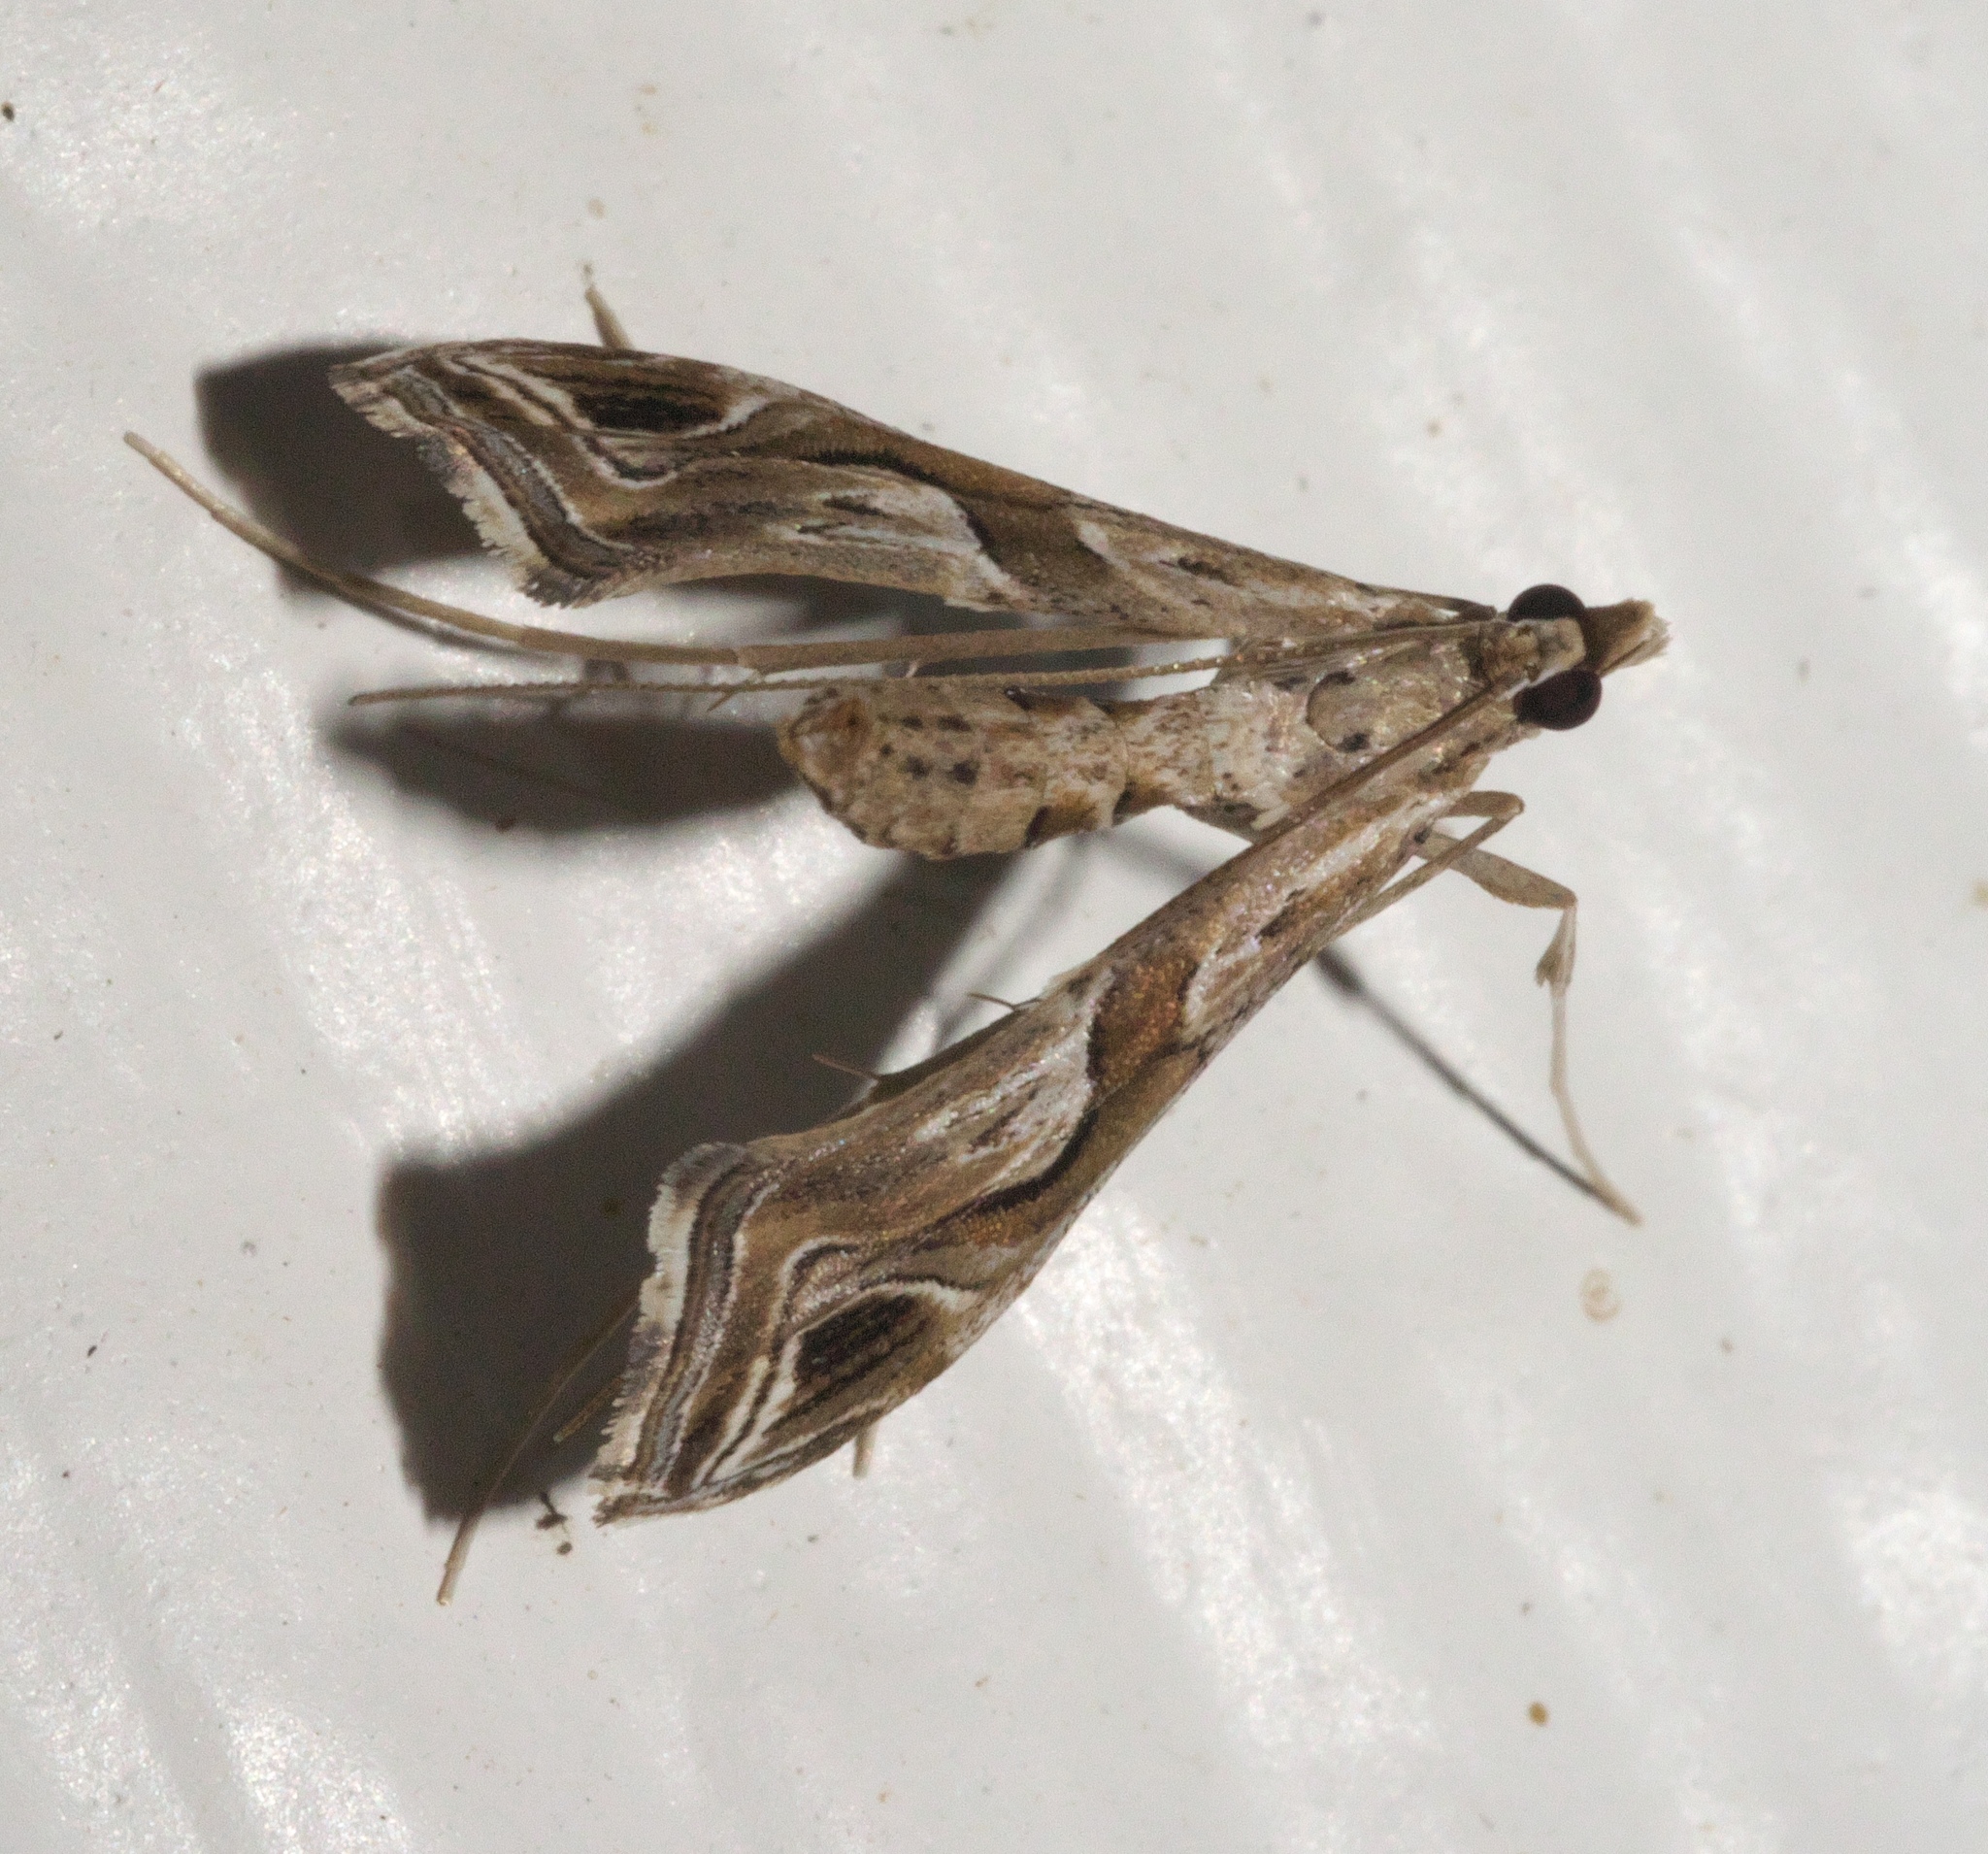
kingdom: Animalia
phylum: Arthropoda
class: Insecta
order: Lepidoptera
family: Crambidae
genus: Lineodes
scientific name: Lineodes integra
